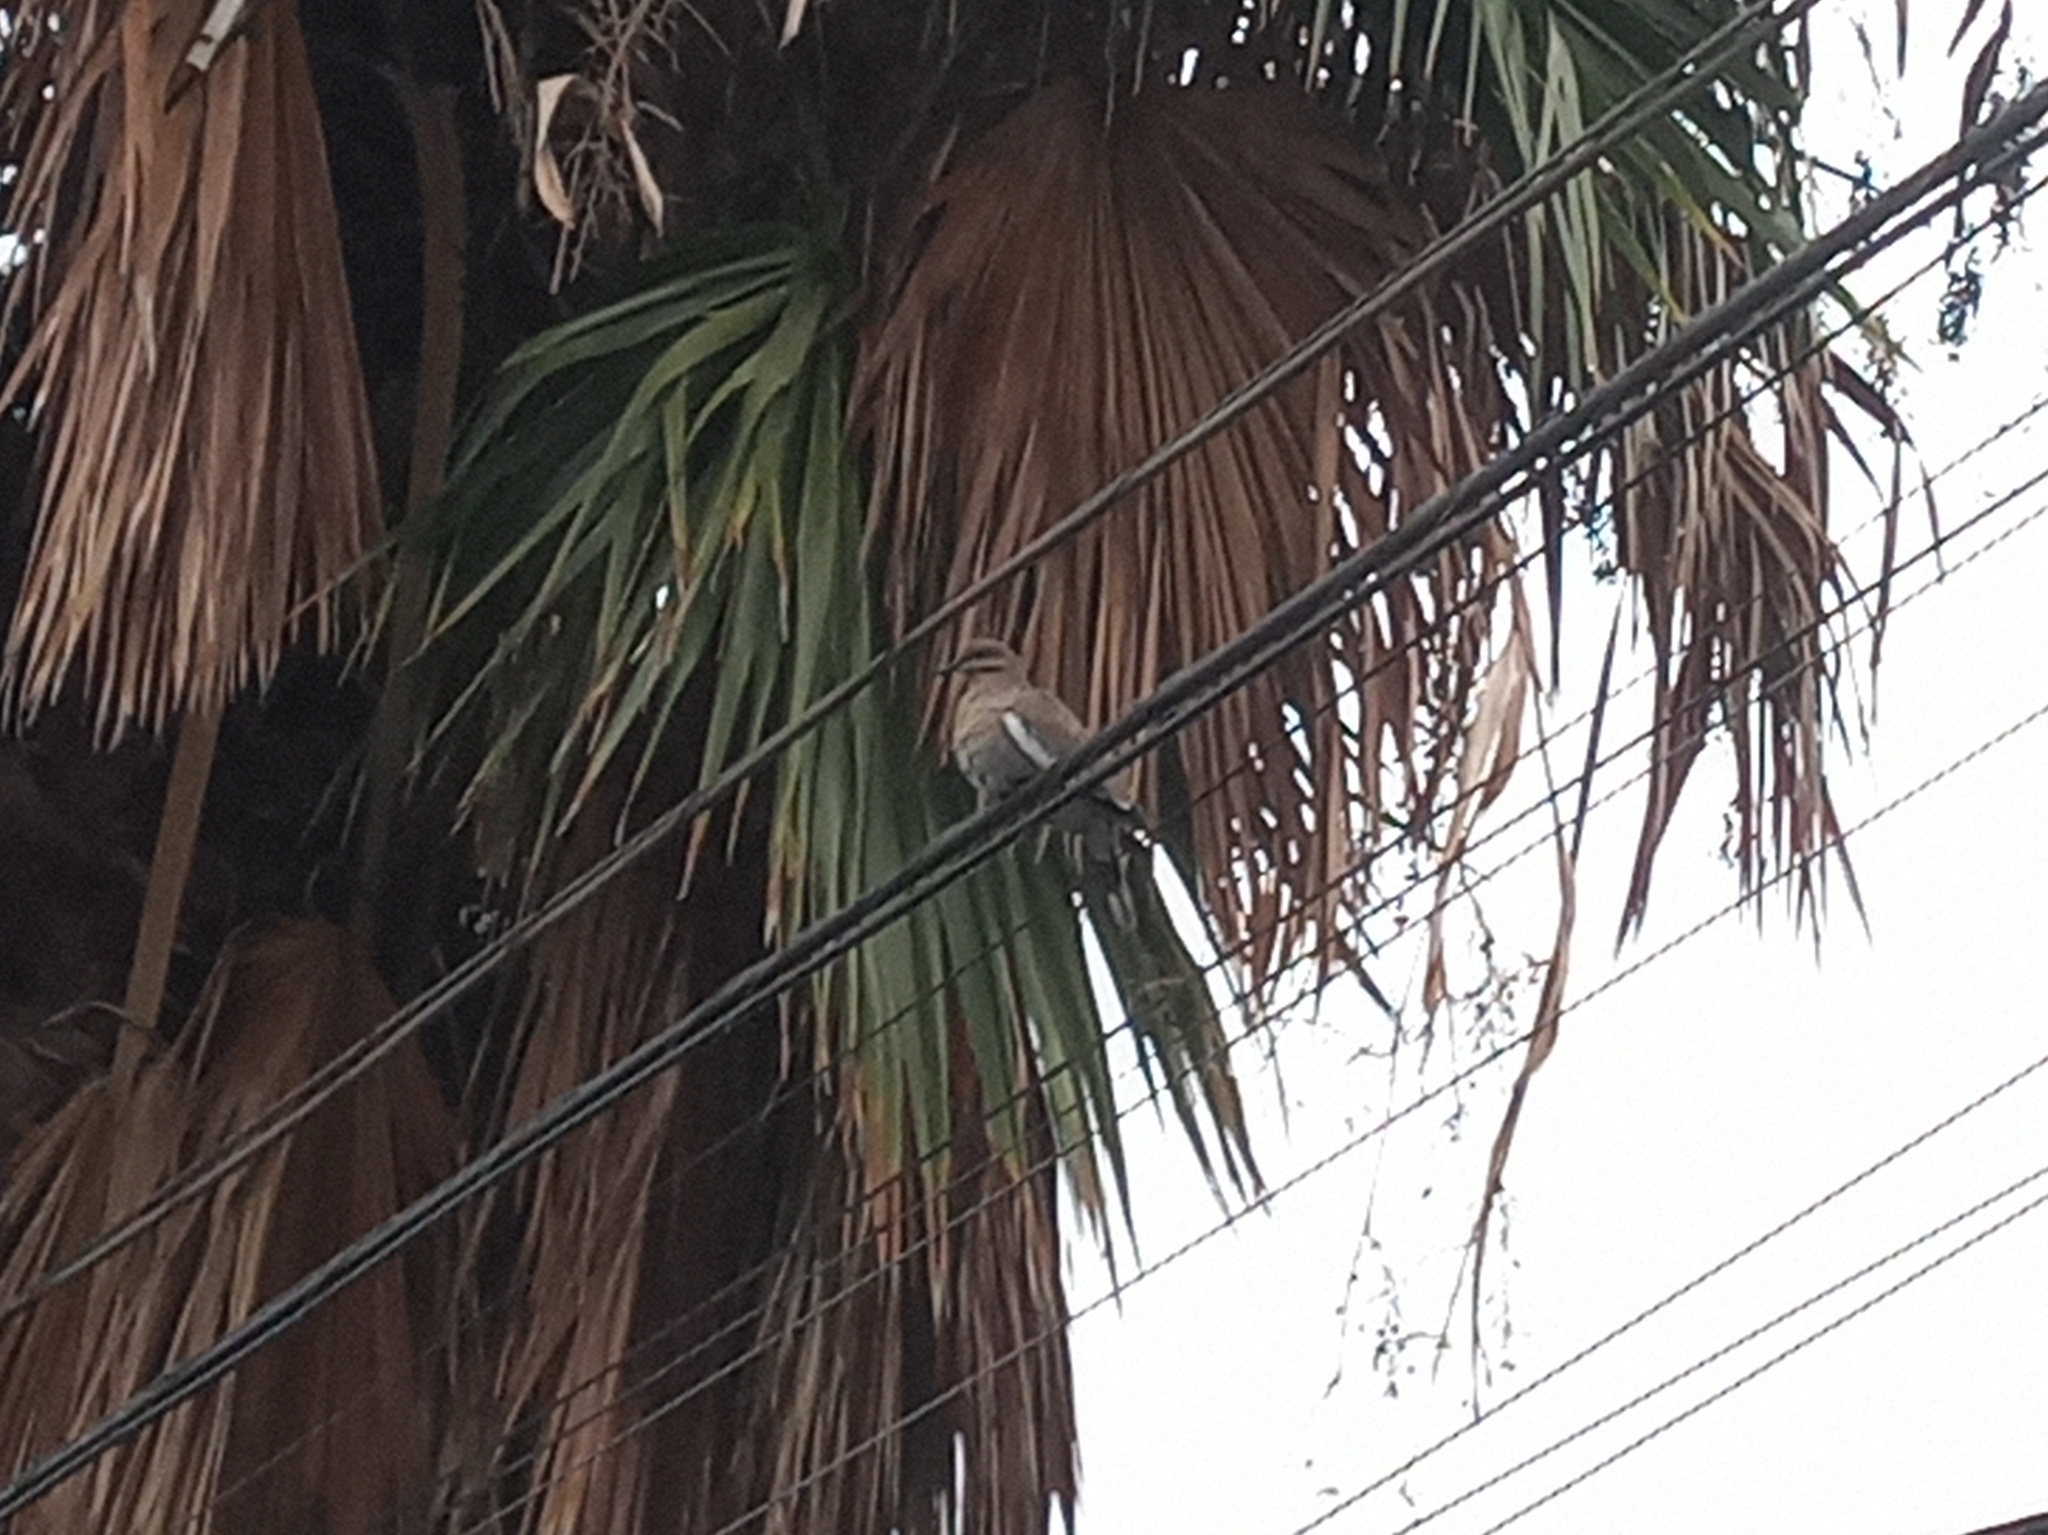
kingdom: Animalia
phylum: Chordata
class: Aves
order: Columbiformes
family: Columbidae
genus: Zenaida
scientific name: Zenaida asiatica
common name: White-winged dove
